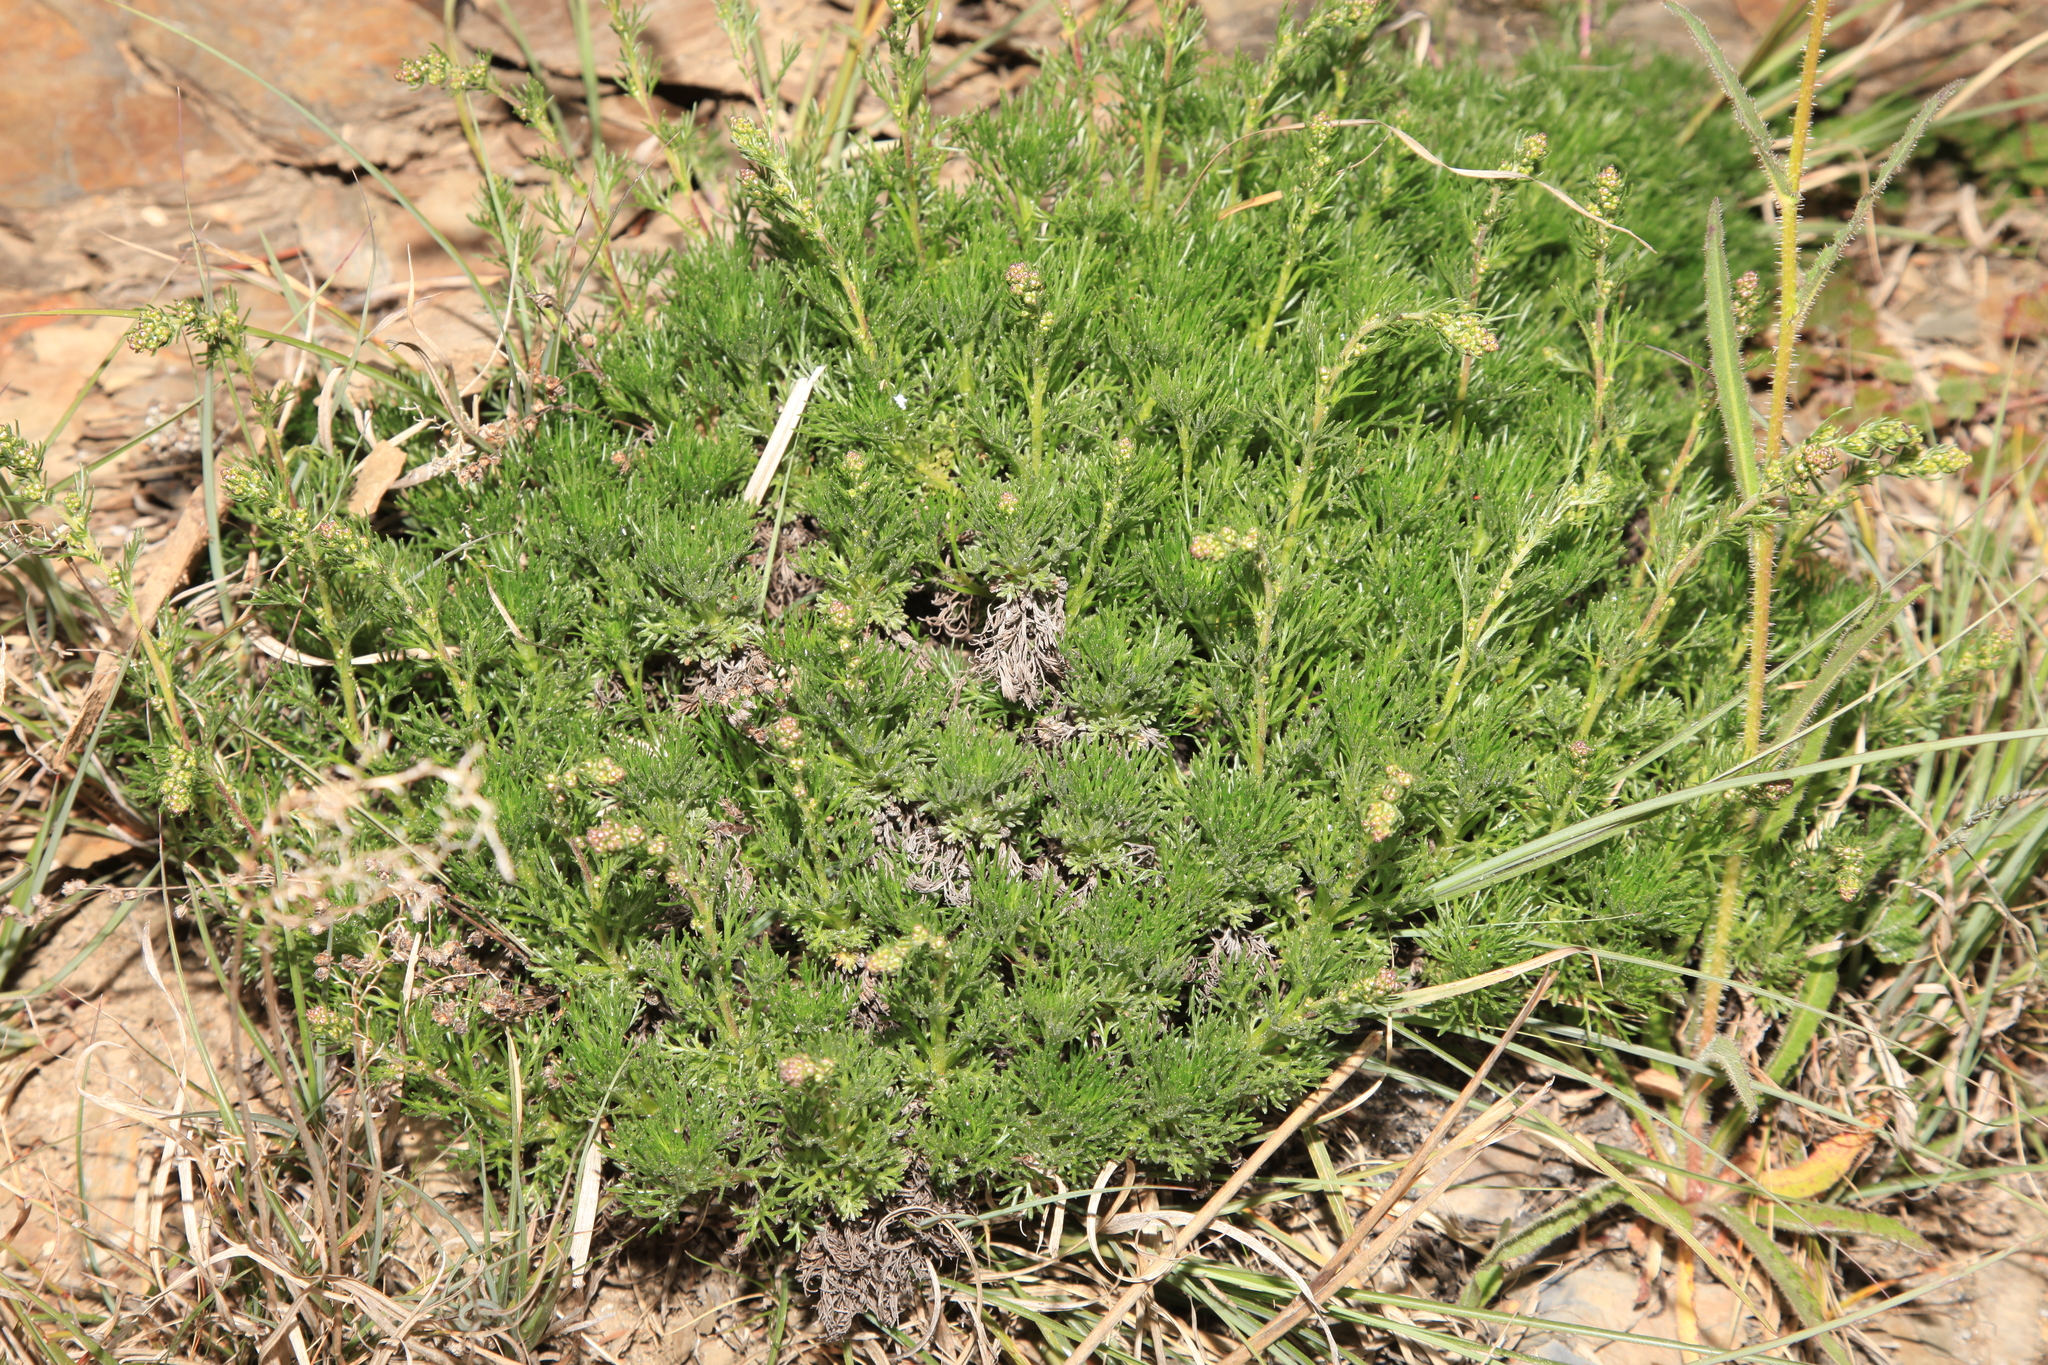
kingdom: Plantae
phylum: Tracheophyta
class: Magnoliopsida
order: Asterales
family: Asteraceae
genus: Artemisia
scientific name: Artemisia morrisonensis
